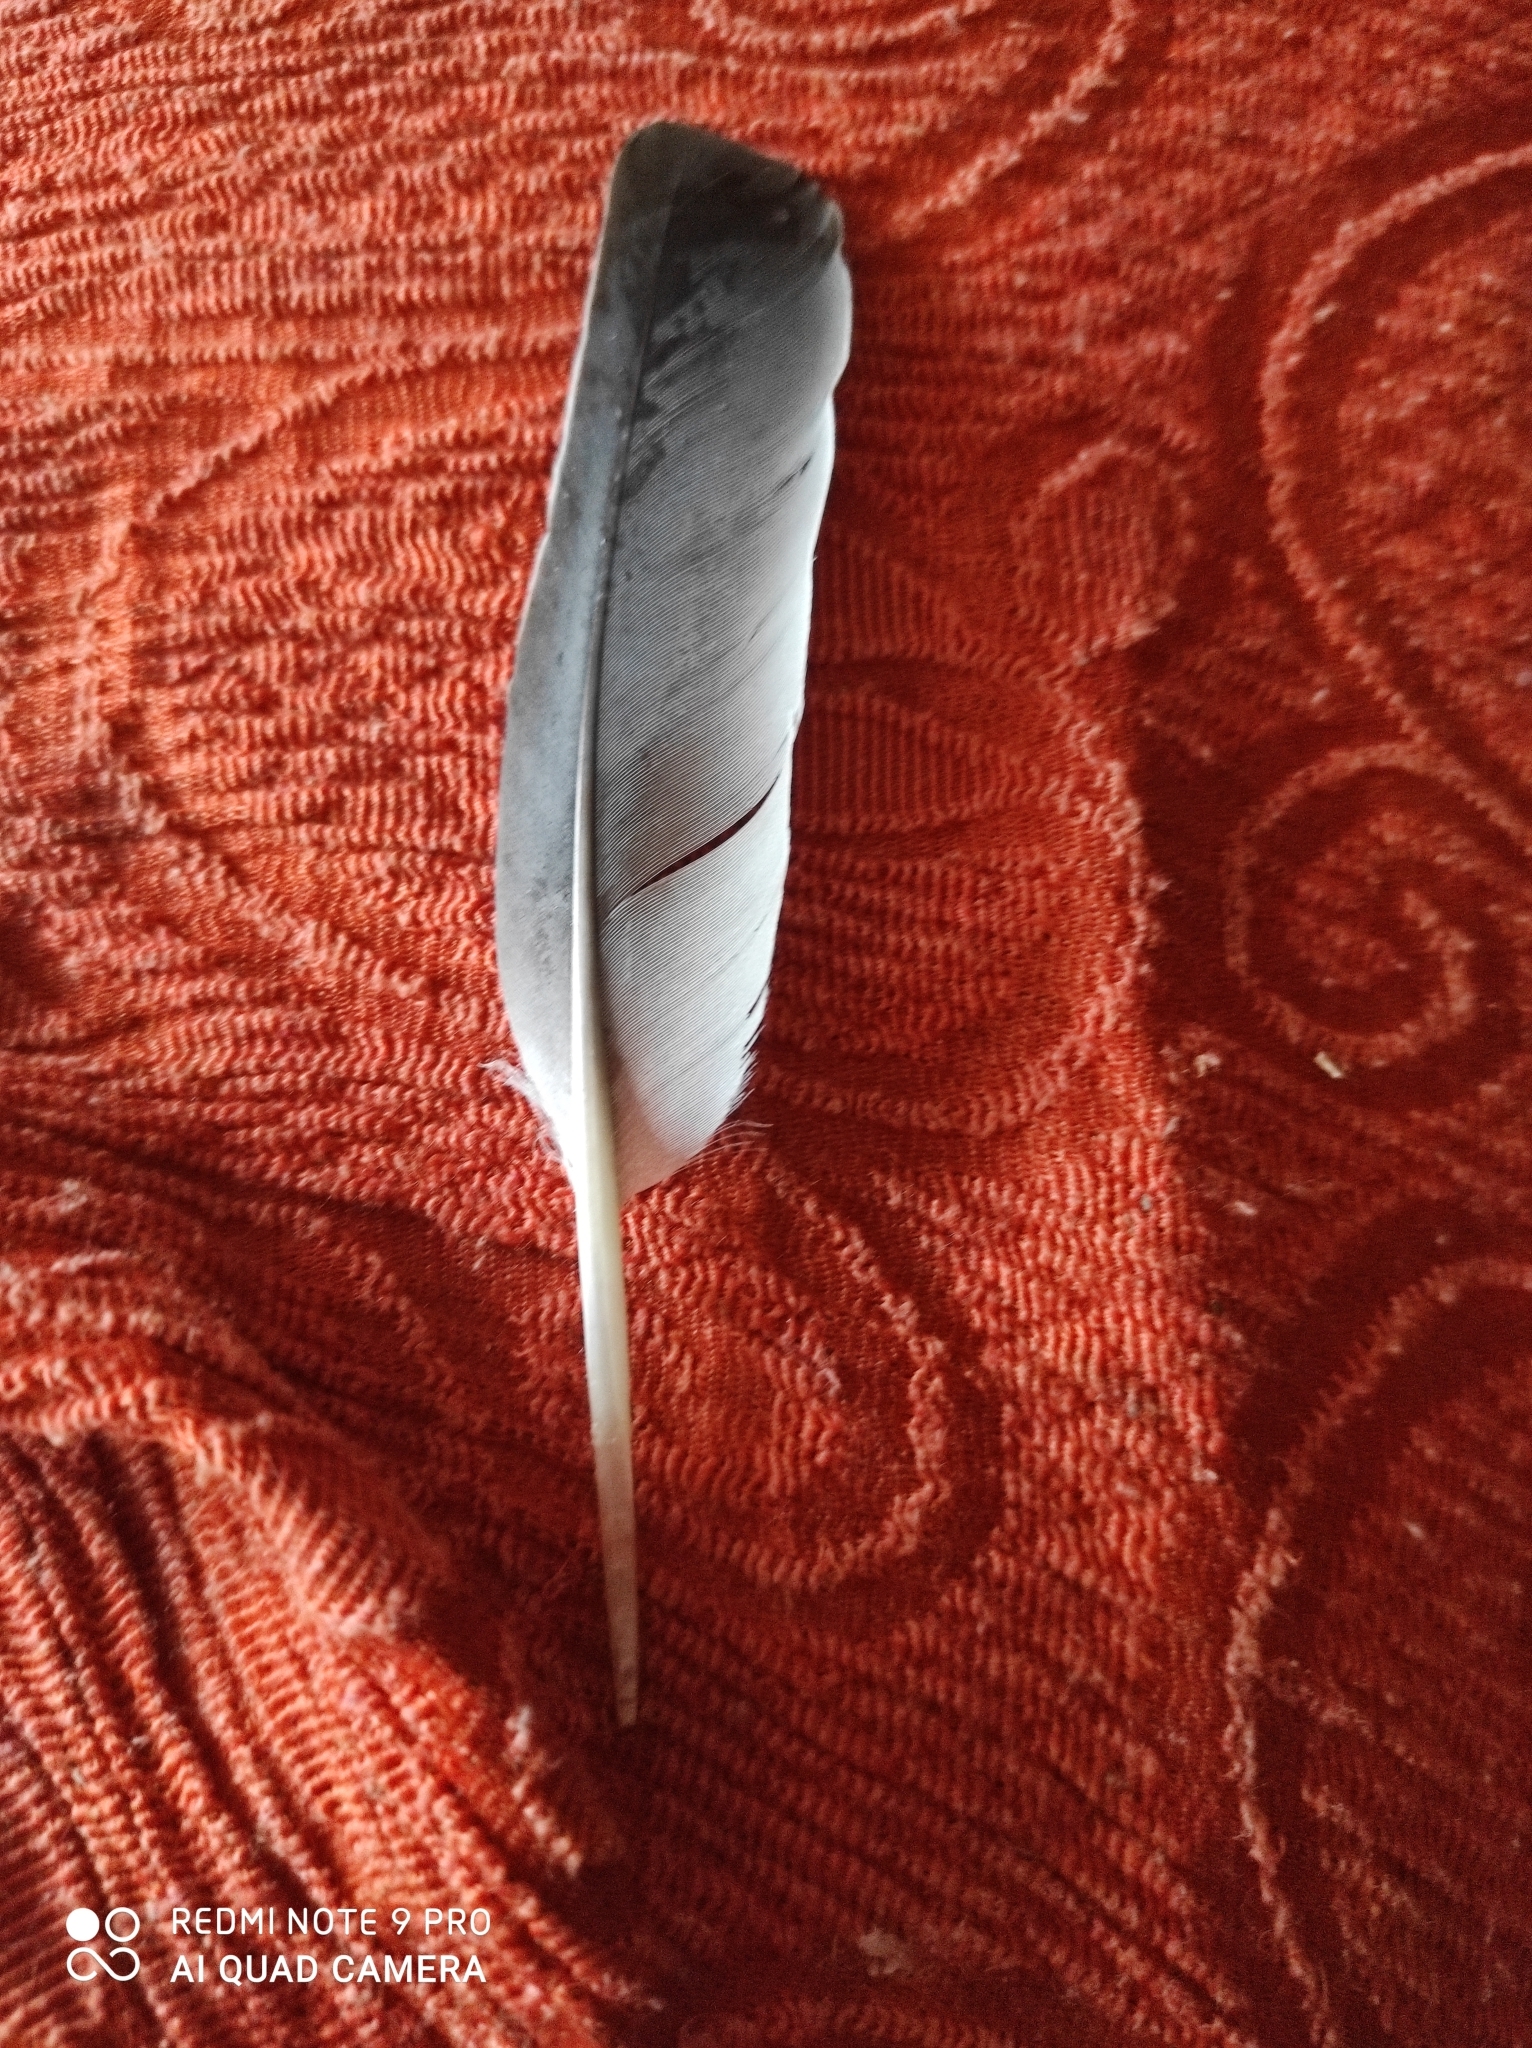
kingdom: Animalia
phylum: Chordata
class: Aves
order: Columbiformes
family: Columbidae
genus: Columba
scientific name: Columba palumbus
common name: Common wood pigeon
